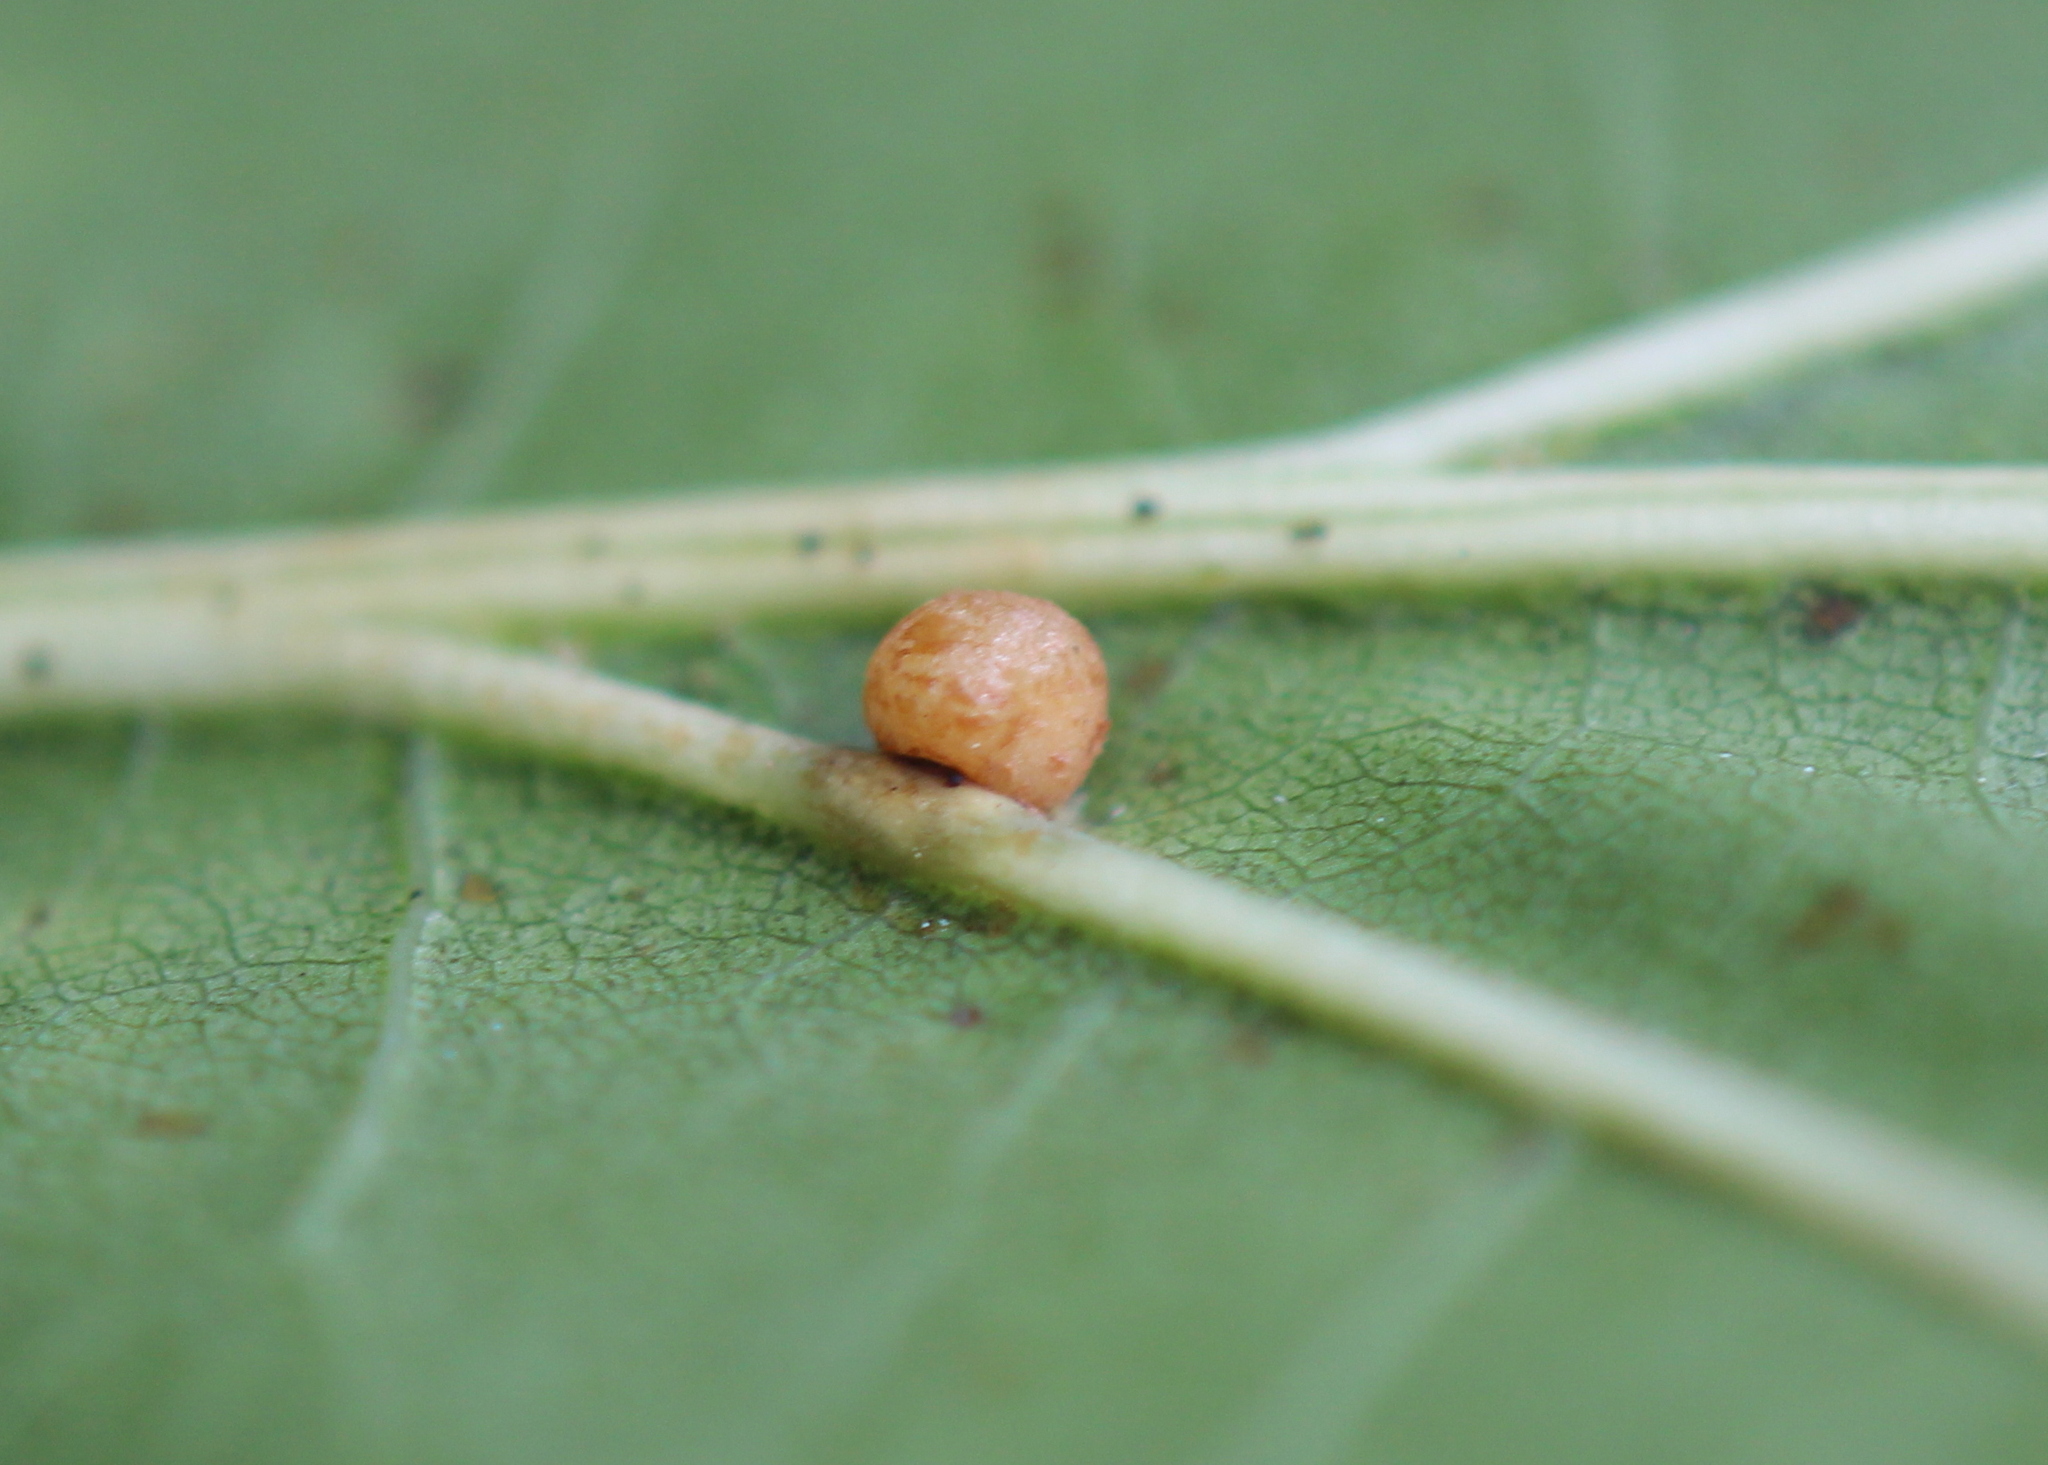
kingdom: Animalia
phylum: Arthropoda
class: Insecta
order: Diptera
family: Cecidomyiidae
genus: Polystepha
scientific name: Polystepha globosa
